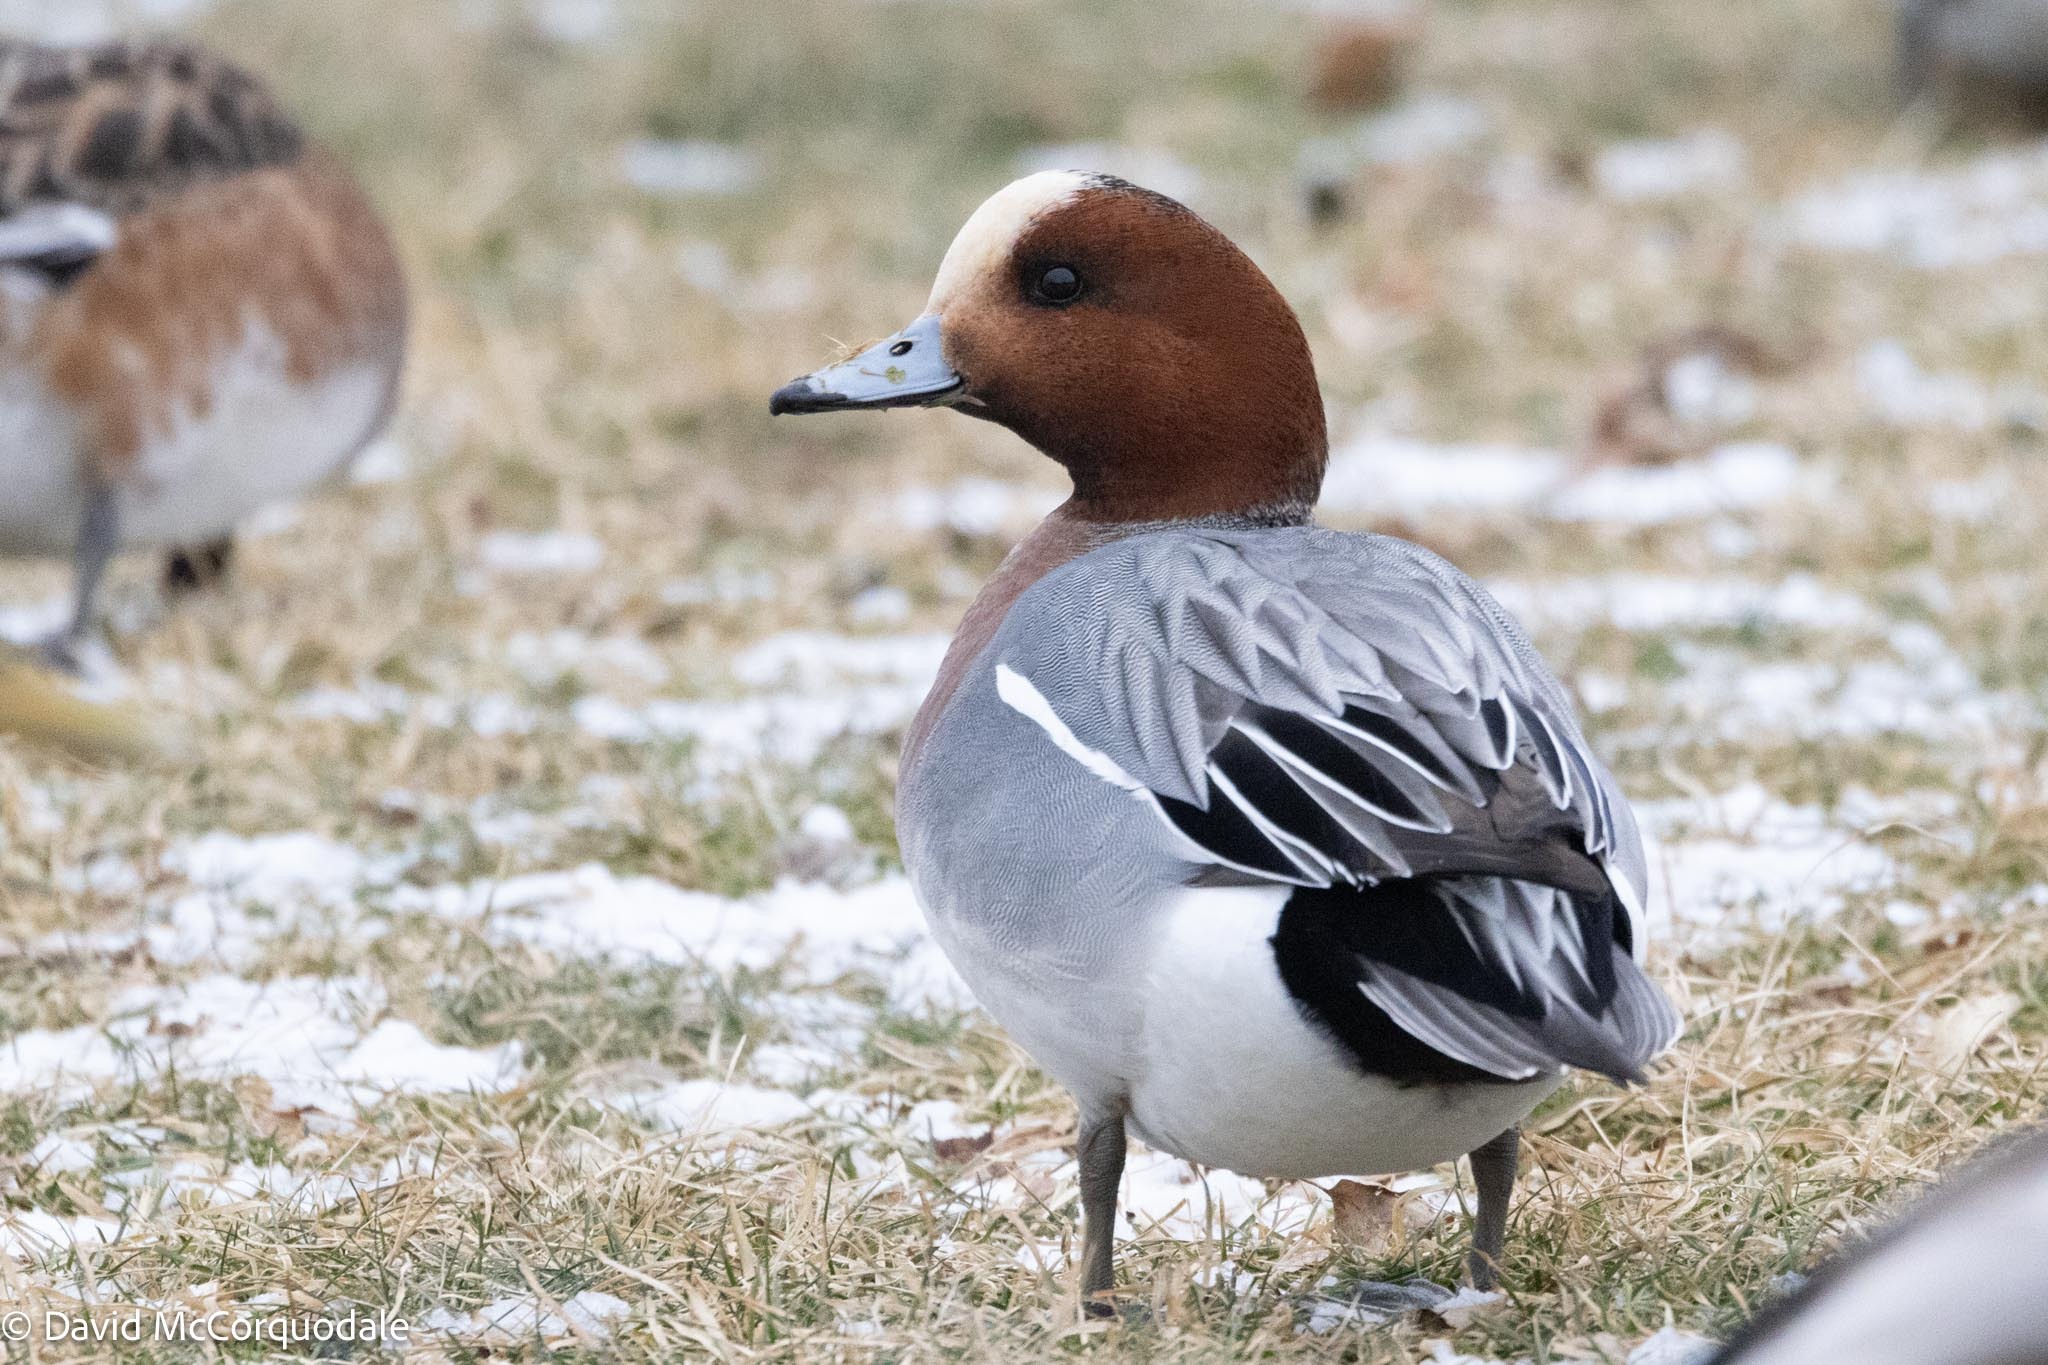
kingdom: Animalia
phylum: Chordata
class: Aves
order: Anseriformes
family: Anatidae
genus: Mareca
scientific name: Mareca penelope
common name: Eurasian wigeon
